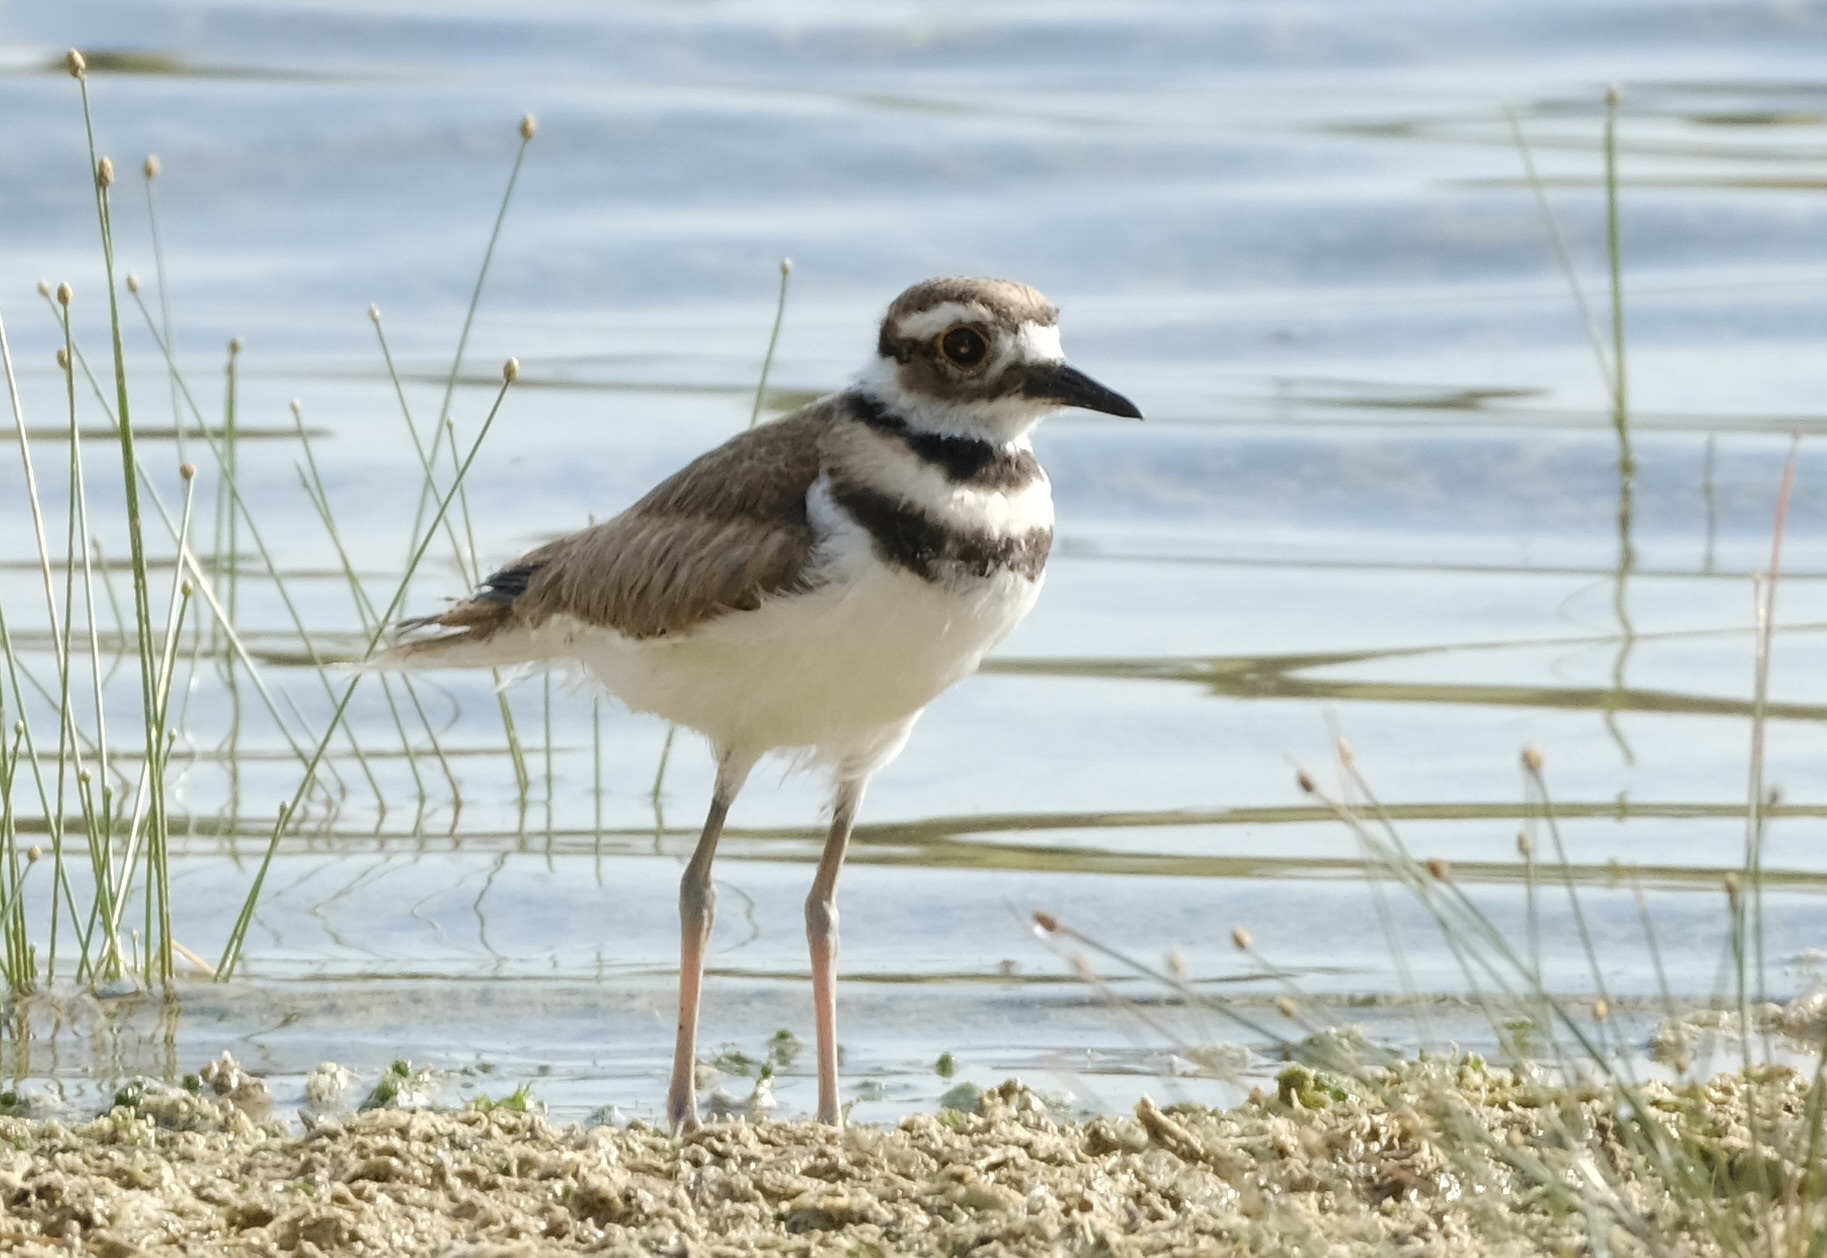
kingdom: Animalia
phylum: Chordata
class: Aves
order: Charadriiformes
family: Charadriidae
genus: Charadrius
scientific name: Charadrius vociferus
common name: Killdeer
